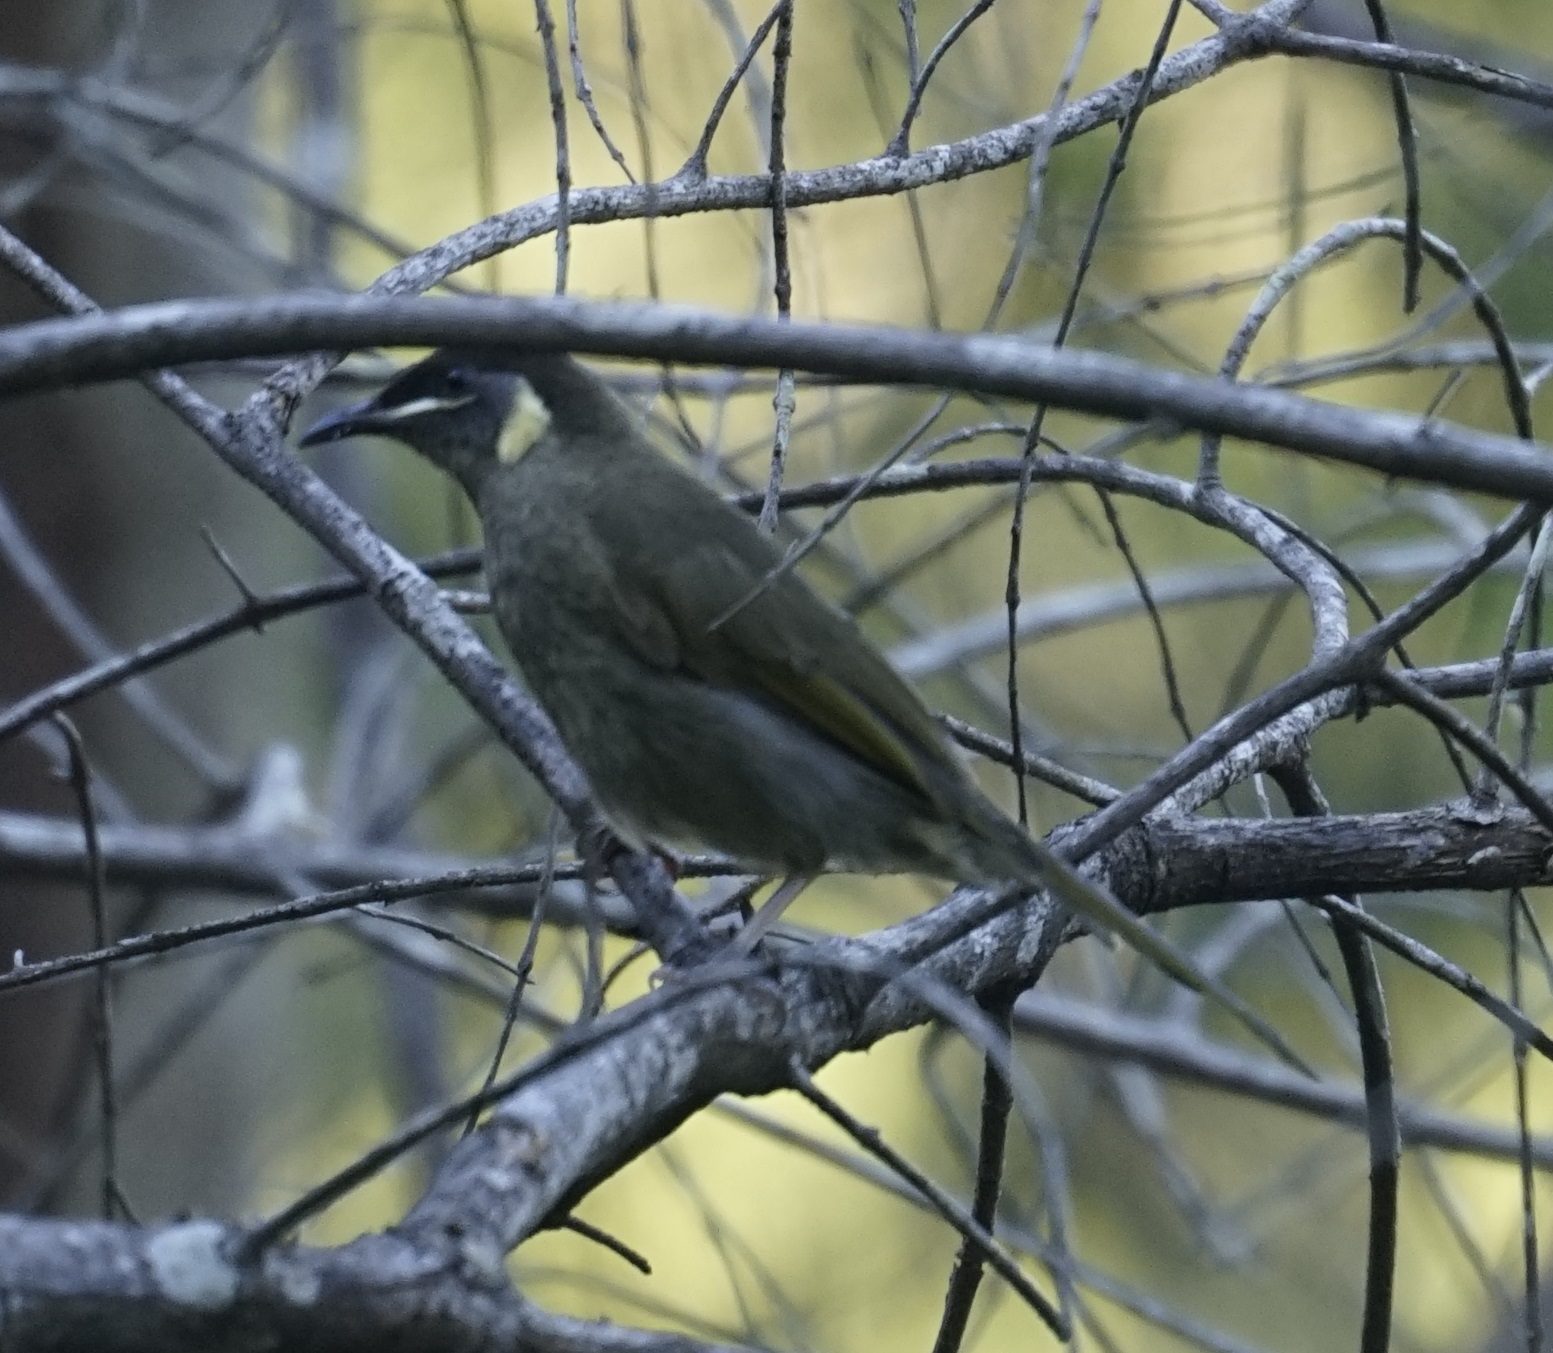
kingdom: Animalia
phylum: Chordata
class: Aves
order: Passeriformes
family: Meliphagidae
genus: Meliphaga
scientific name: Meliphaga lewinii
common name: Lewin's honeyeater
